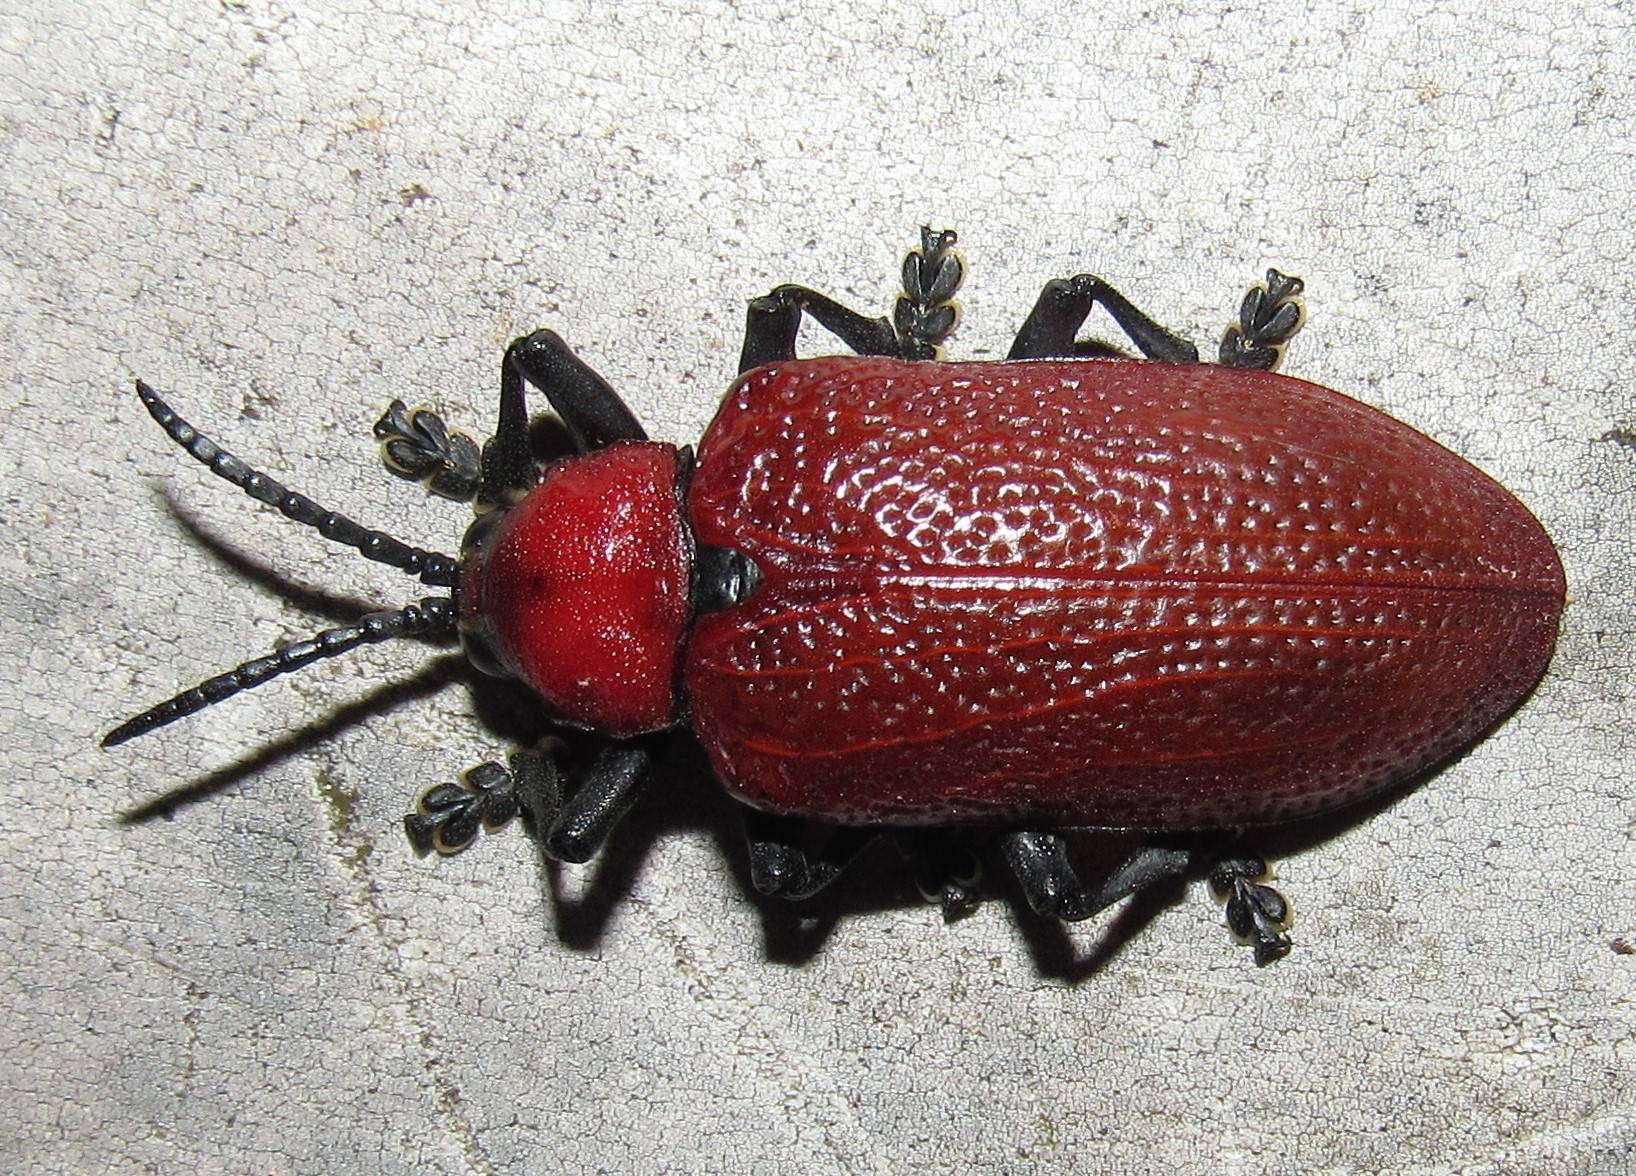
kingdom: Animalia
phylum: Arthropoda
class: Insecta
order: Coleoptera
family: Chrysomelidae
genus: Coraliomela
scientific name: Coraliomela brunnea
